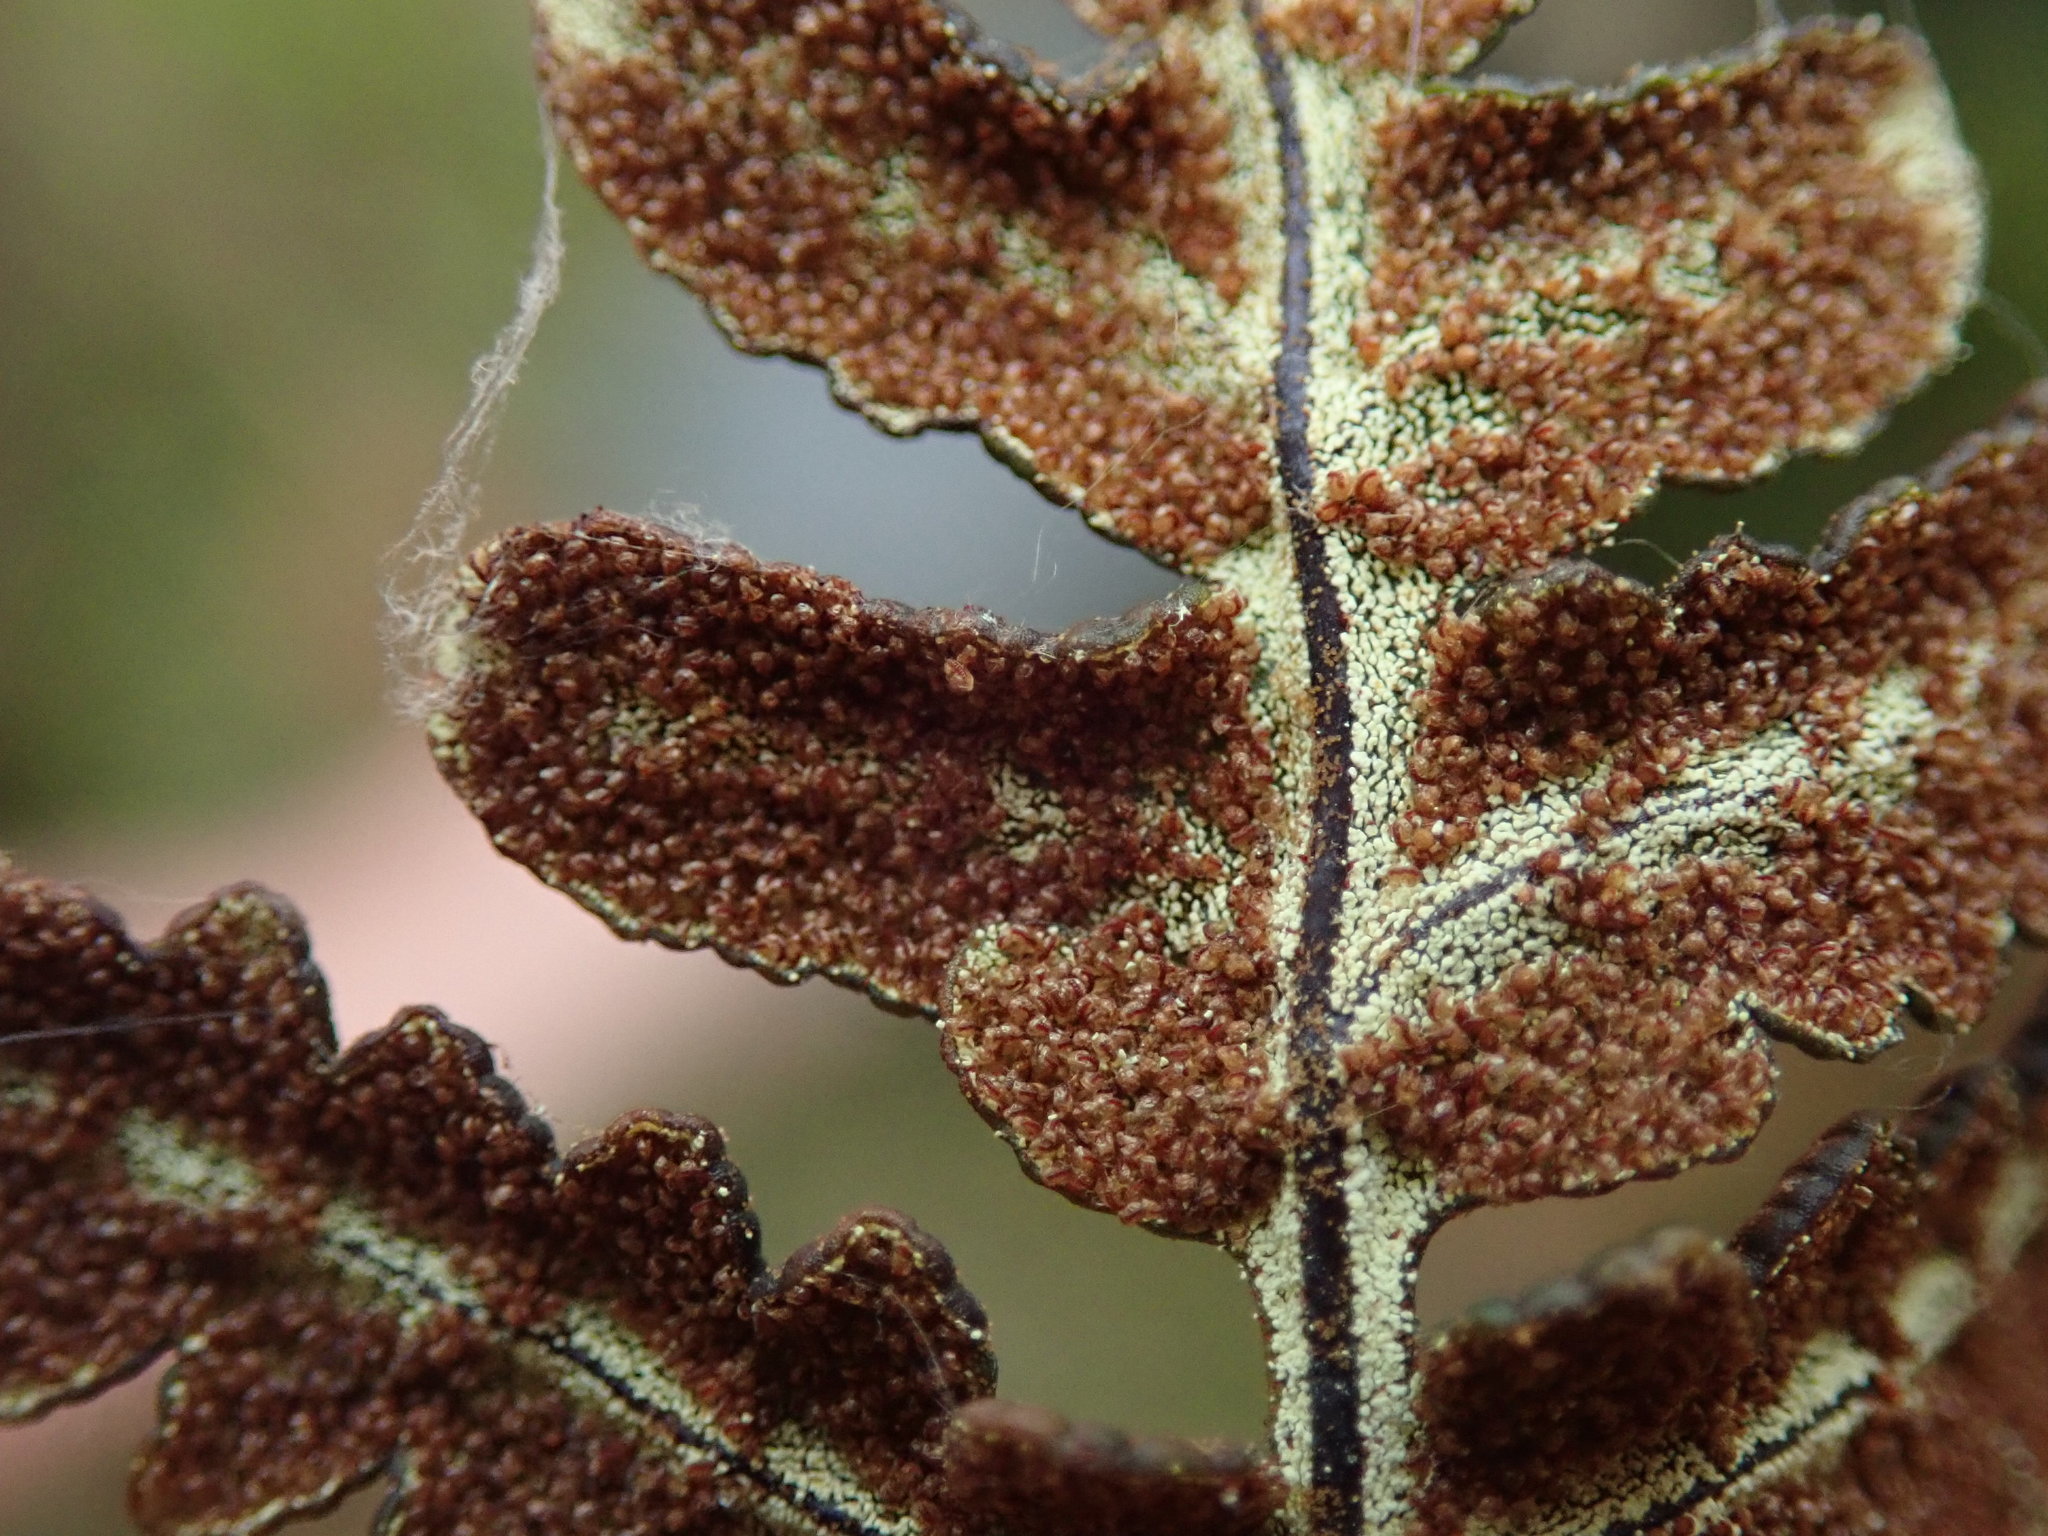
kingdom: Plantae
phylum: Tracheophyta
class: Polypodiopsida
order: Polypodiales
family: Pteridaceae
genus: Pentagramma
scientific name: Pentagramma triangularis
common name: Gold fern
